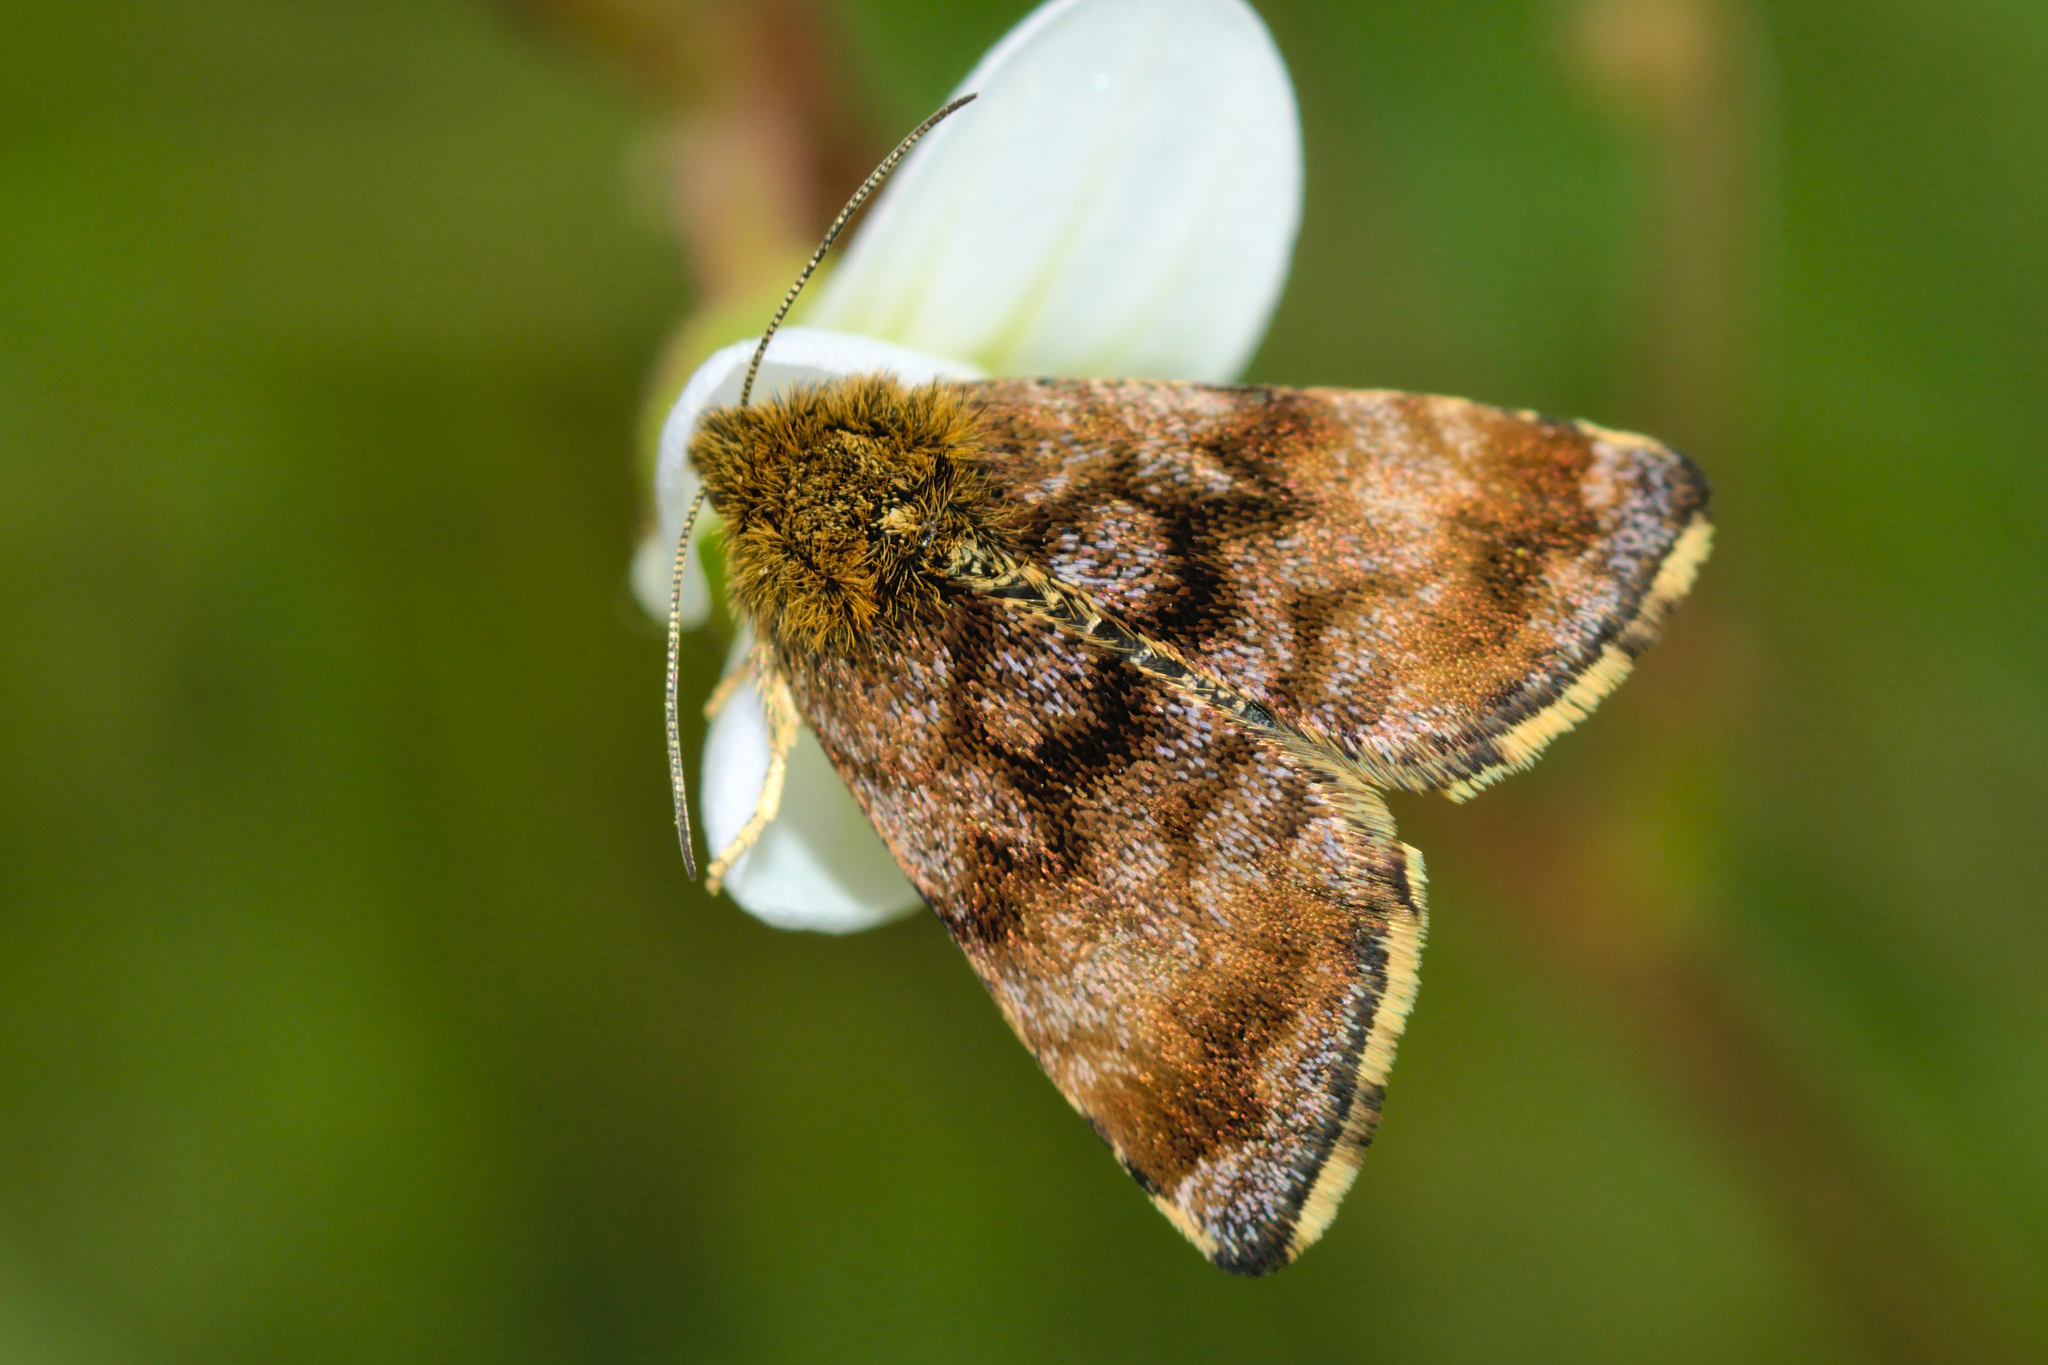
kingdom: Animalia
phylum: Arthropoda
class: Insecta
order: Lepidoptera
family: Noctuidae
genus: Panemeria
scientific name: Panemeria tenebrata
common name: Small yellow underwing
